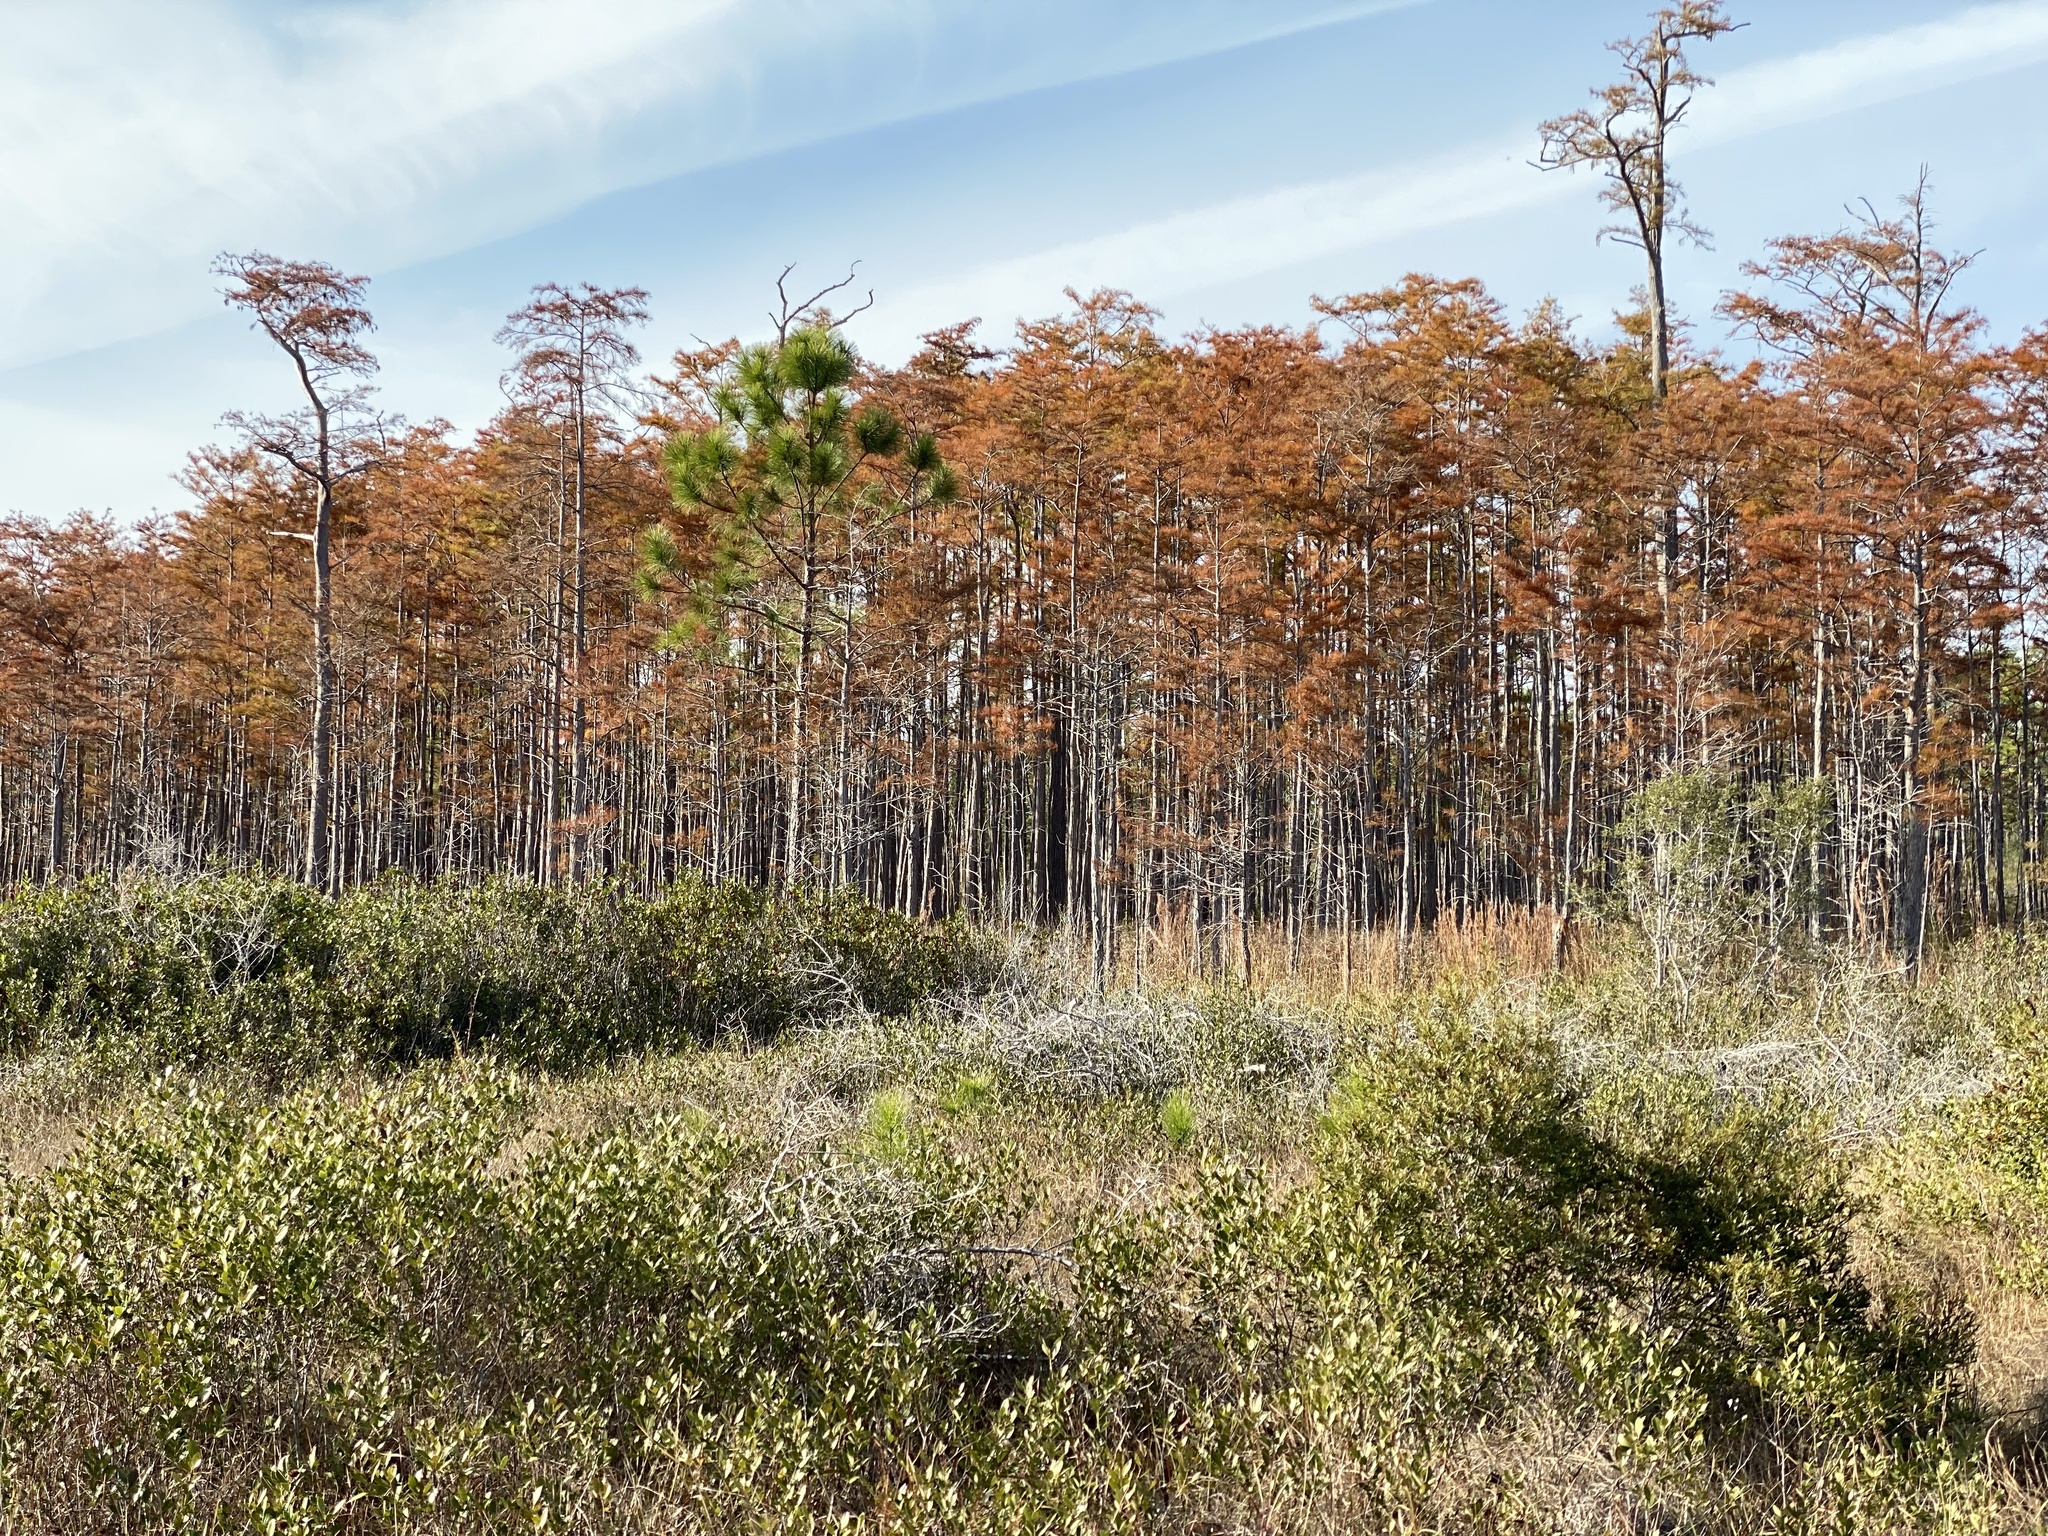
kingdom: Plantae
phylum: Tracheophyta
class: Pinopsida
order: Pinales
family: Cupressaceae
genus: Taxodium
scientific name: Taxodium distichum
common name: Bald cypress
